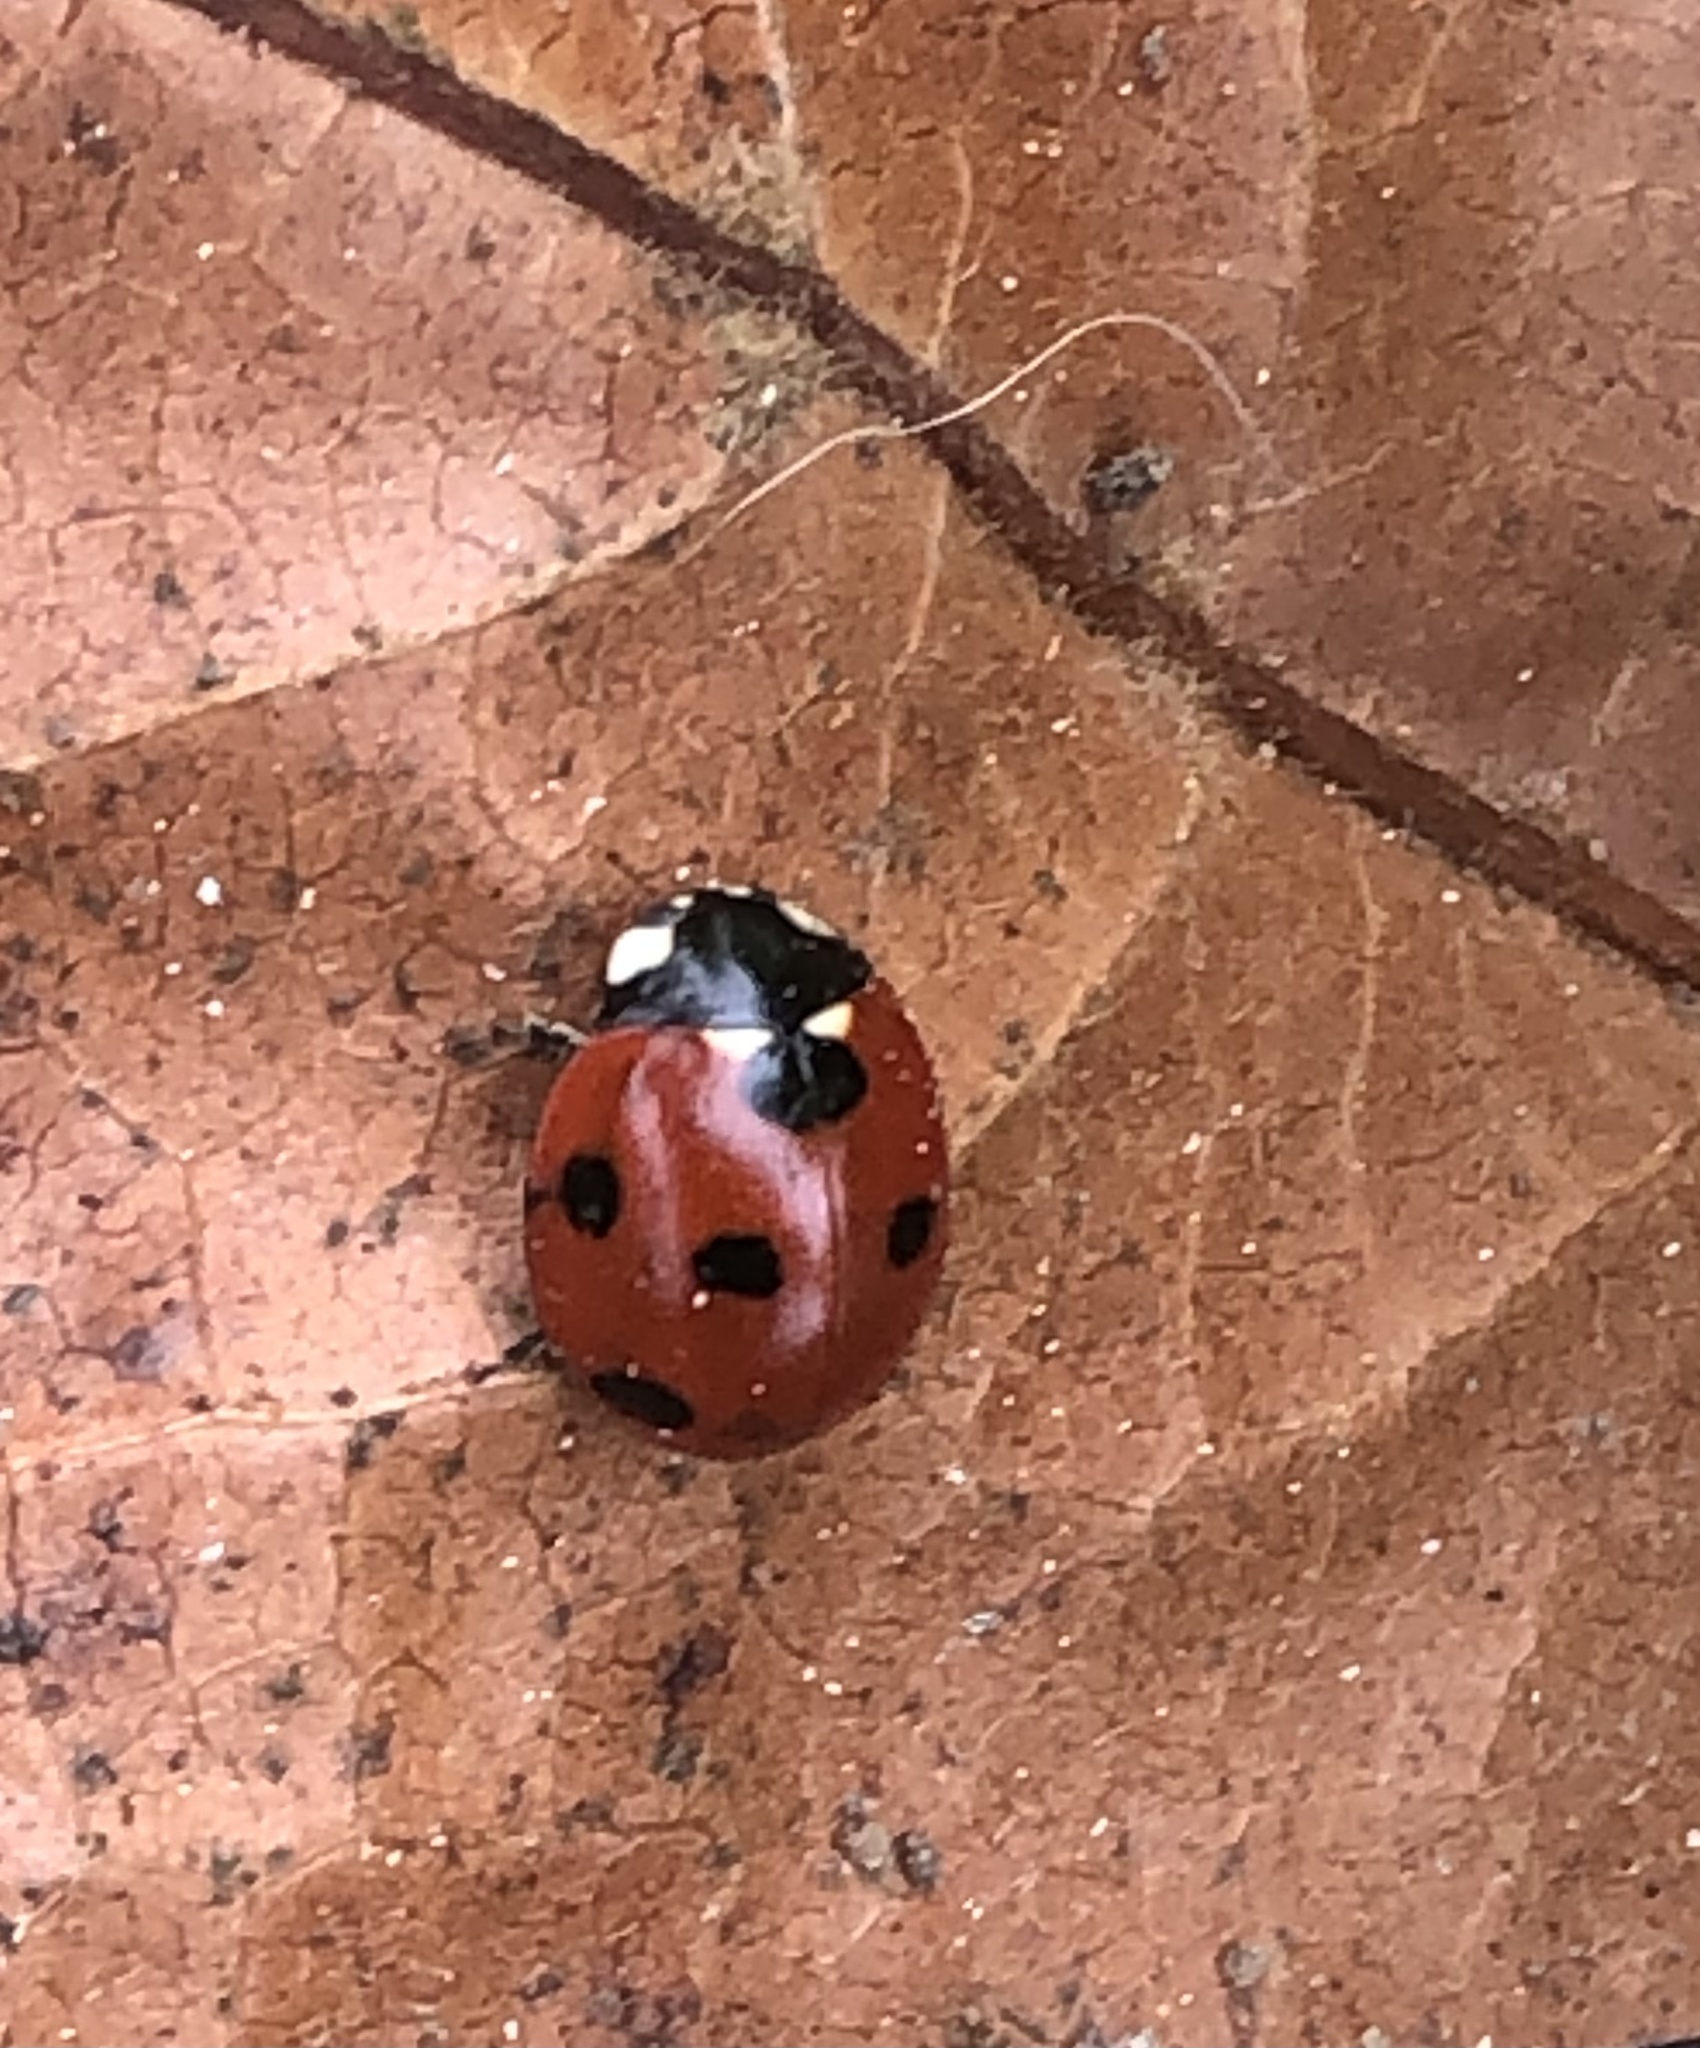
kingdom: Animalia
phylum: Arthropoda
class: Insecta
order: Coleoptera
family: Coccinellidae
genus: Coccinella
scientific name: Coccinella septempunctata
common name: Sevenspotted lady beetle
